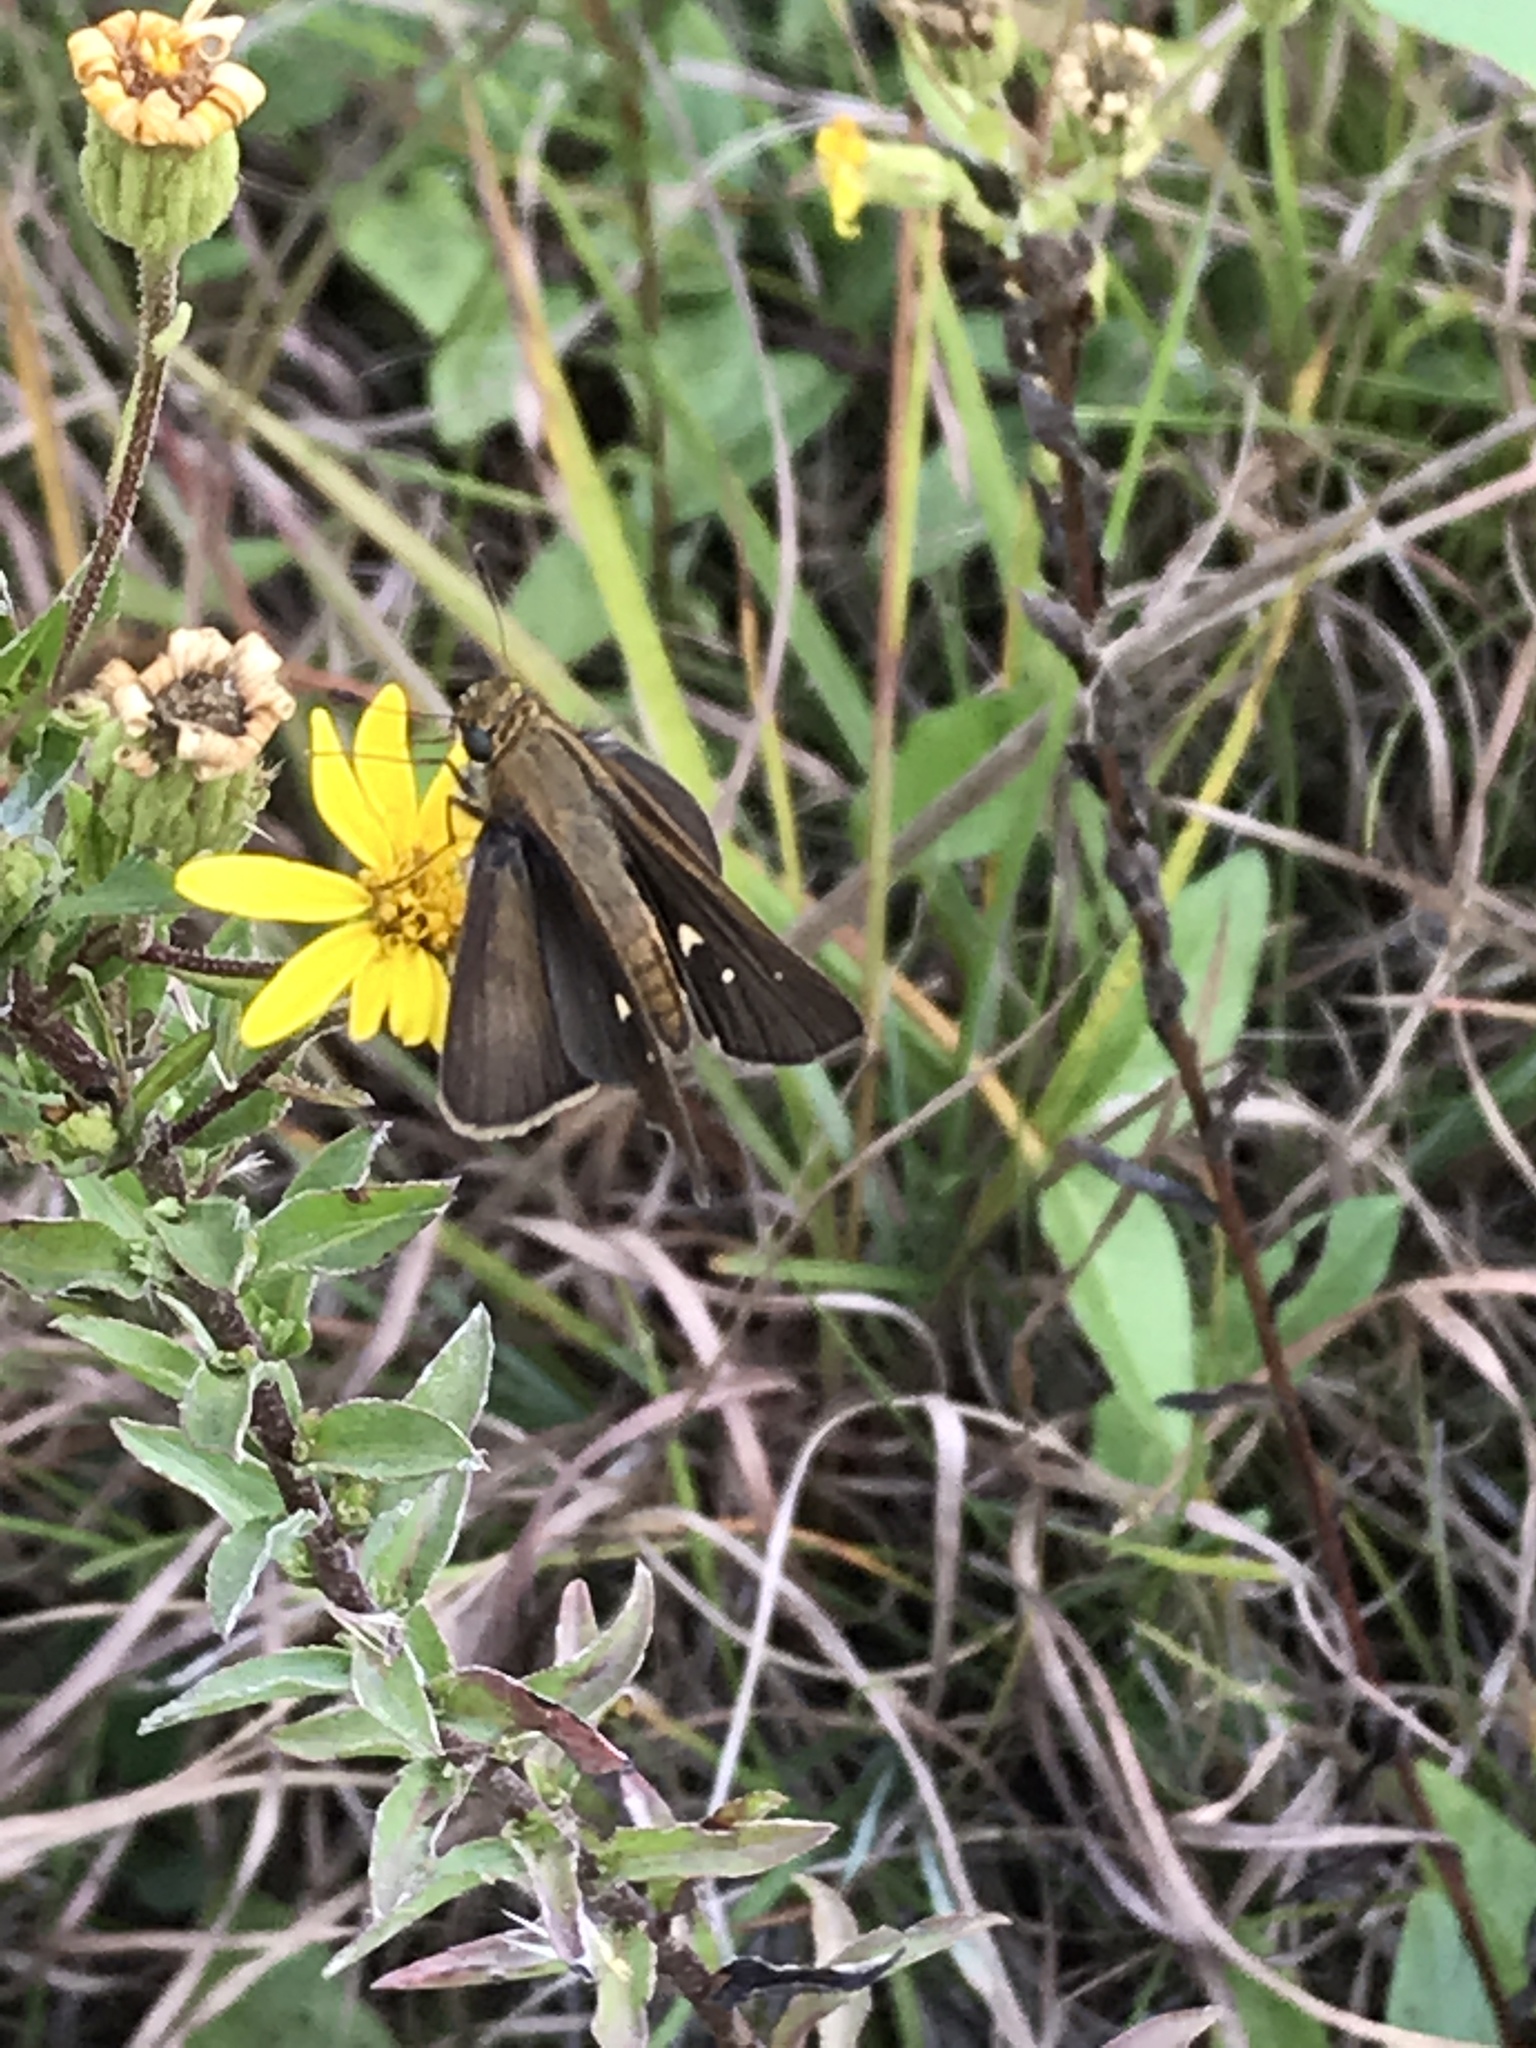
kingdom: Animalia
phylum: Arthropoda
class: Insecta
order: Lepidoptera
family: Hesperiidae
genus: Panoquina
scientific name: Panoquina ocola
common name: Ocola skipper
